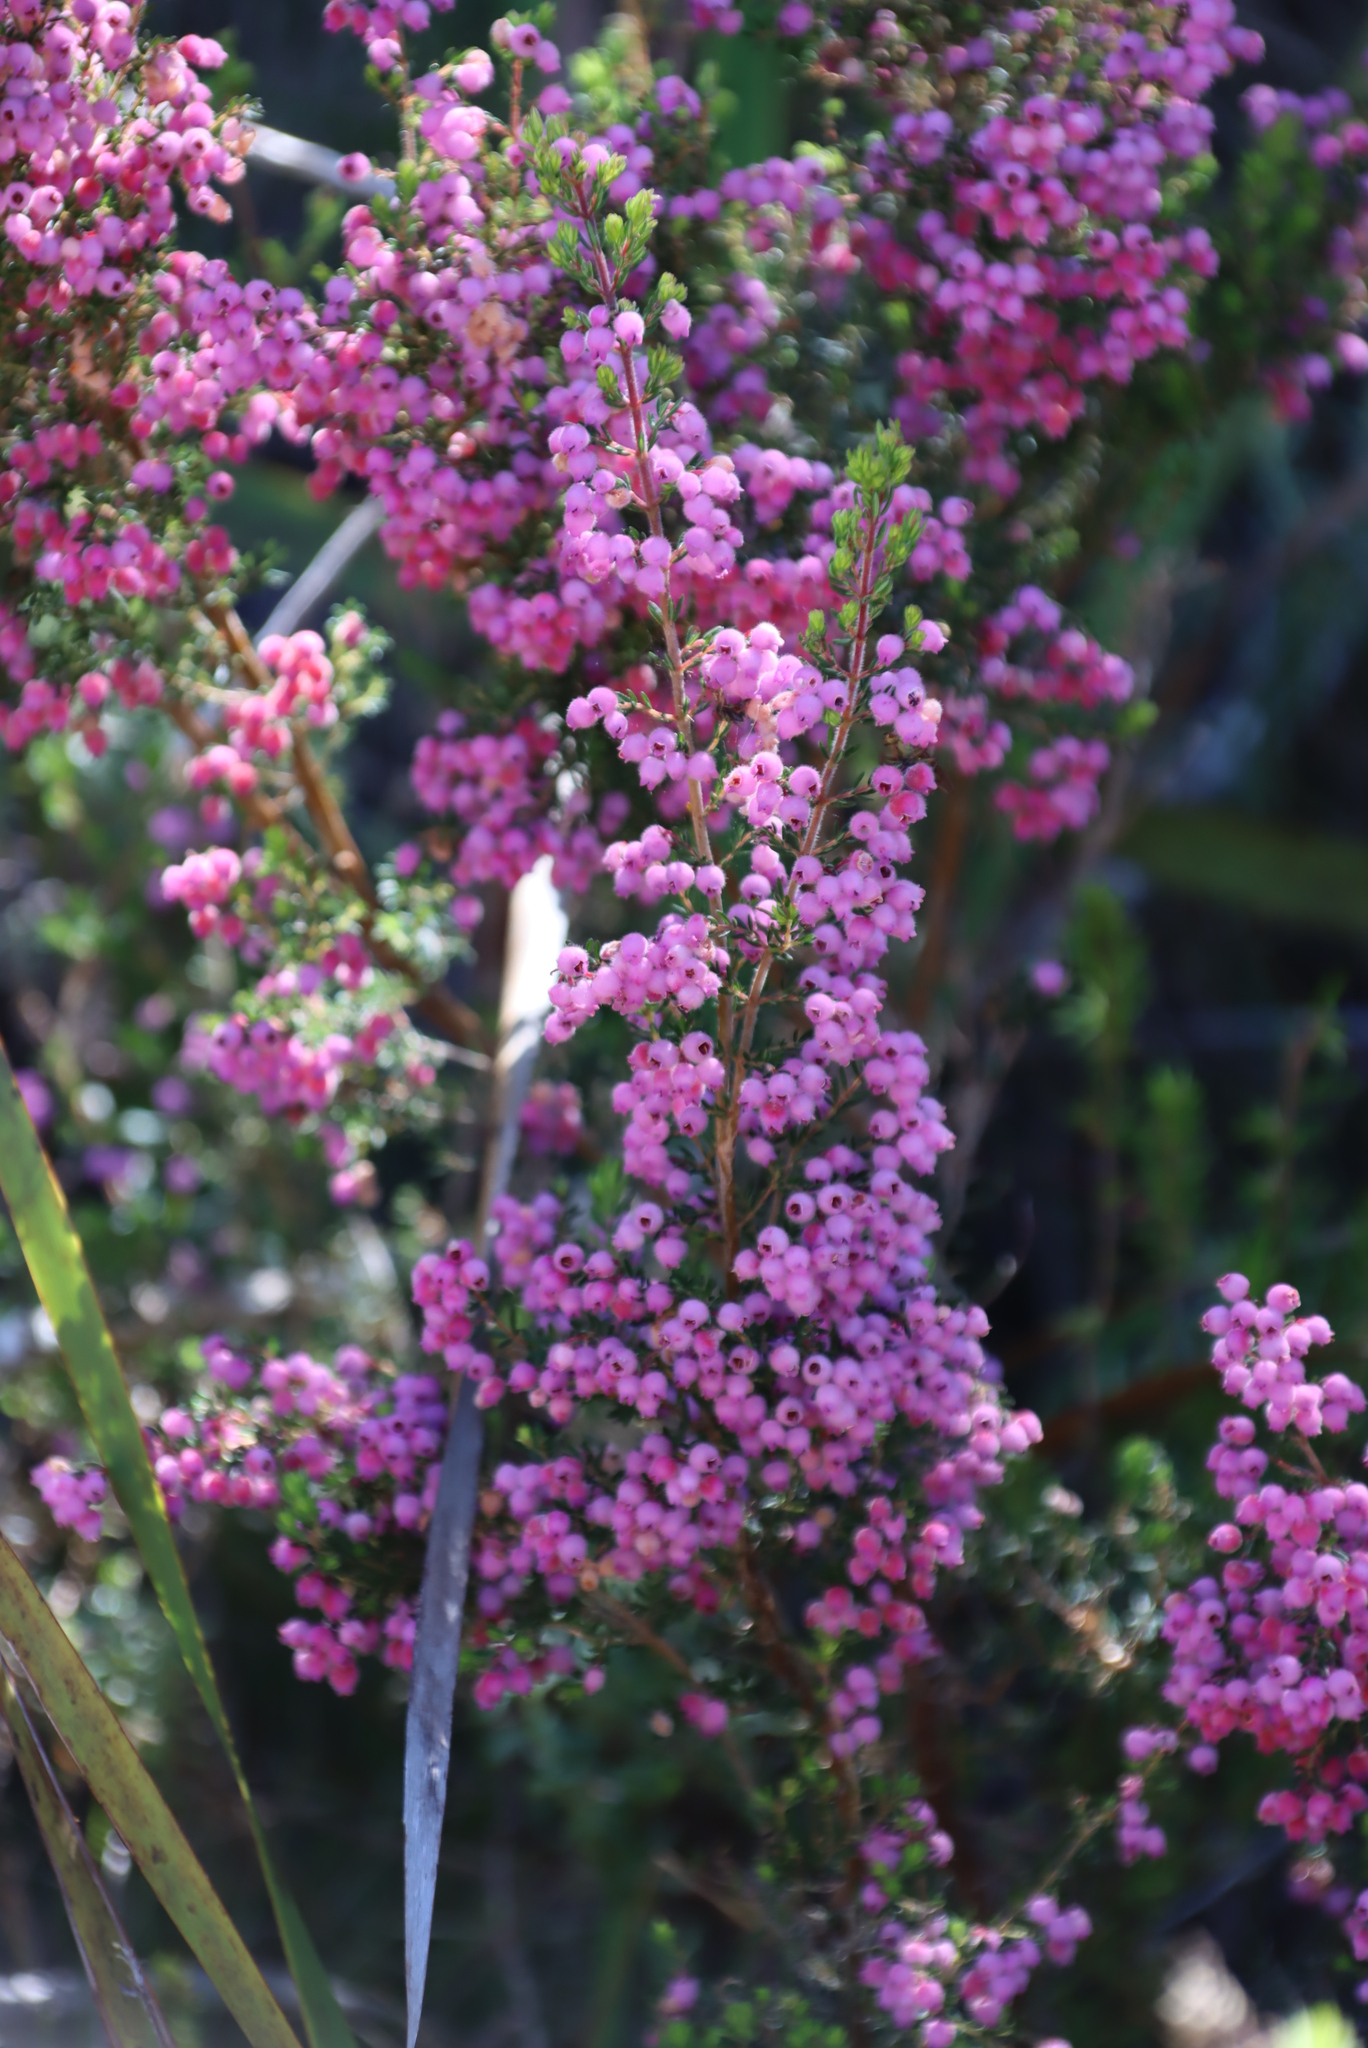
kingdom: Plantae
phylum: Tracheophyta
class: Magnoliopsida
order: Ericales
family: Ericaceae
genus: Erica
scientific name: Erica hirtiflora
